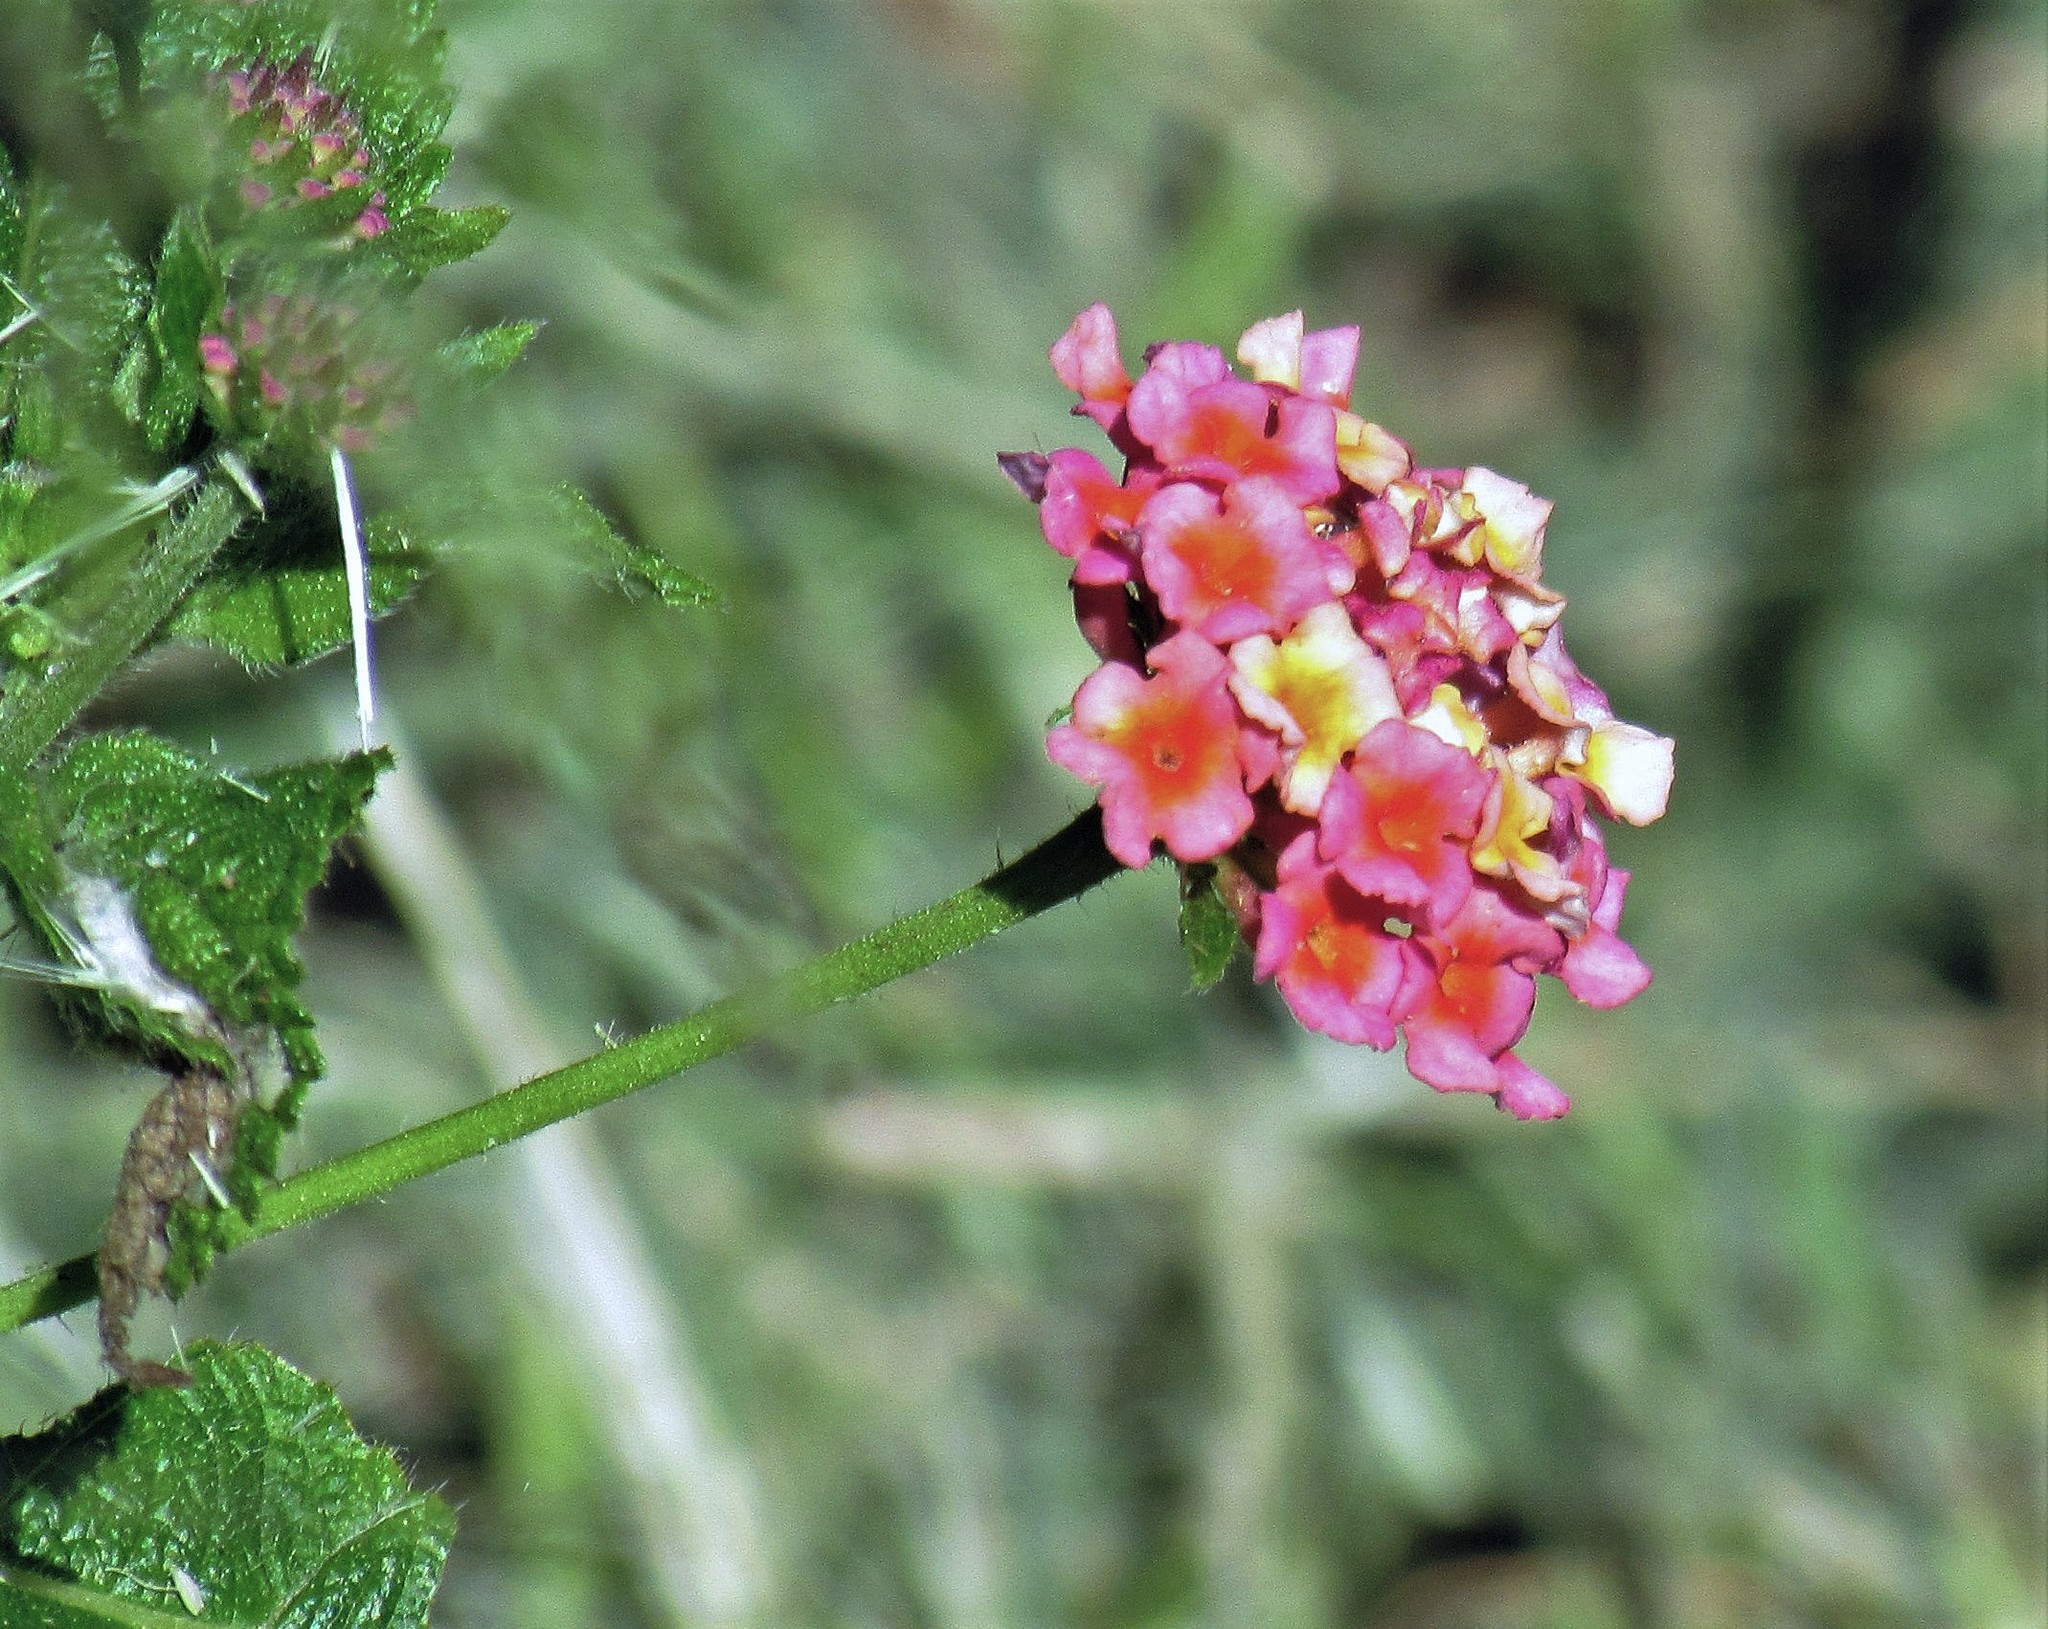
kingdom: Plantae
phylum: Tracheophyta
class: Magnoliopsida
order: Lamiales
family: Verbenaceae
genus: Lantana
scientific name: Lantana camara
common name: Lantana
